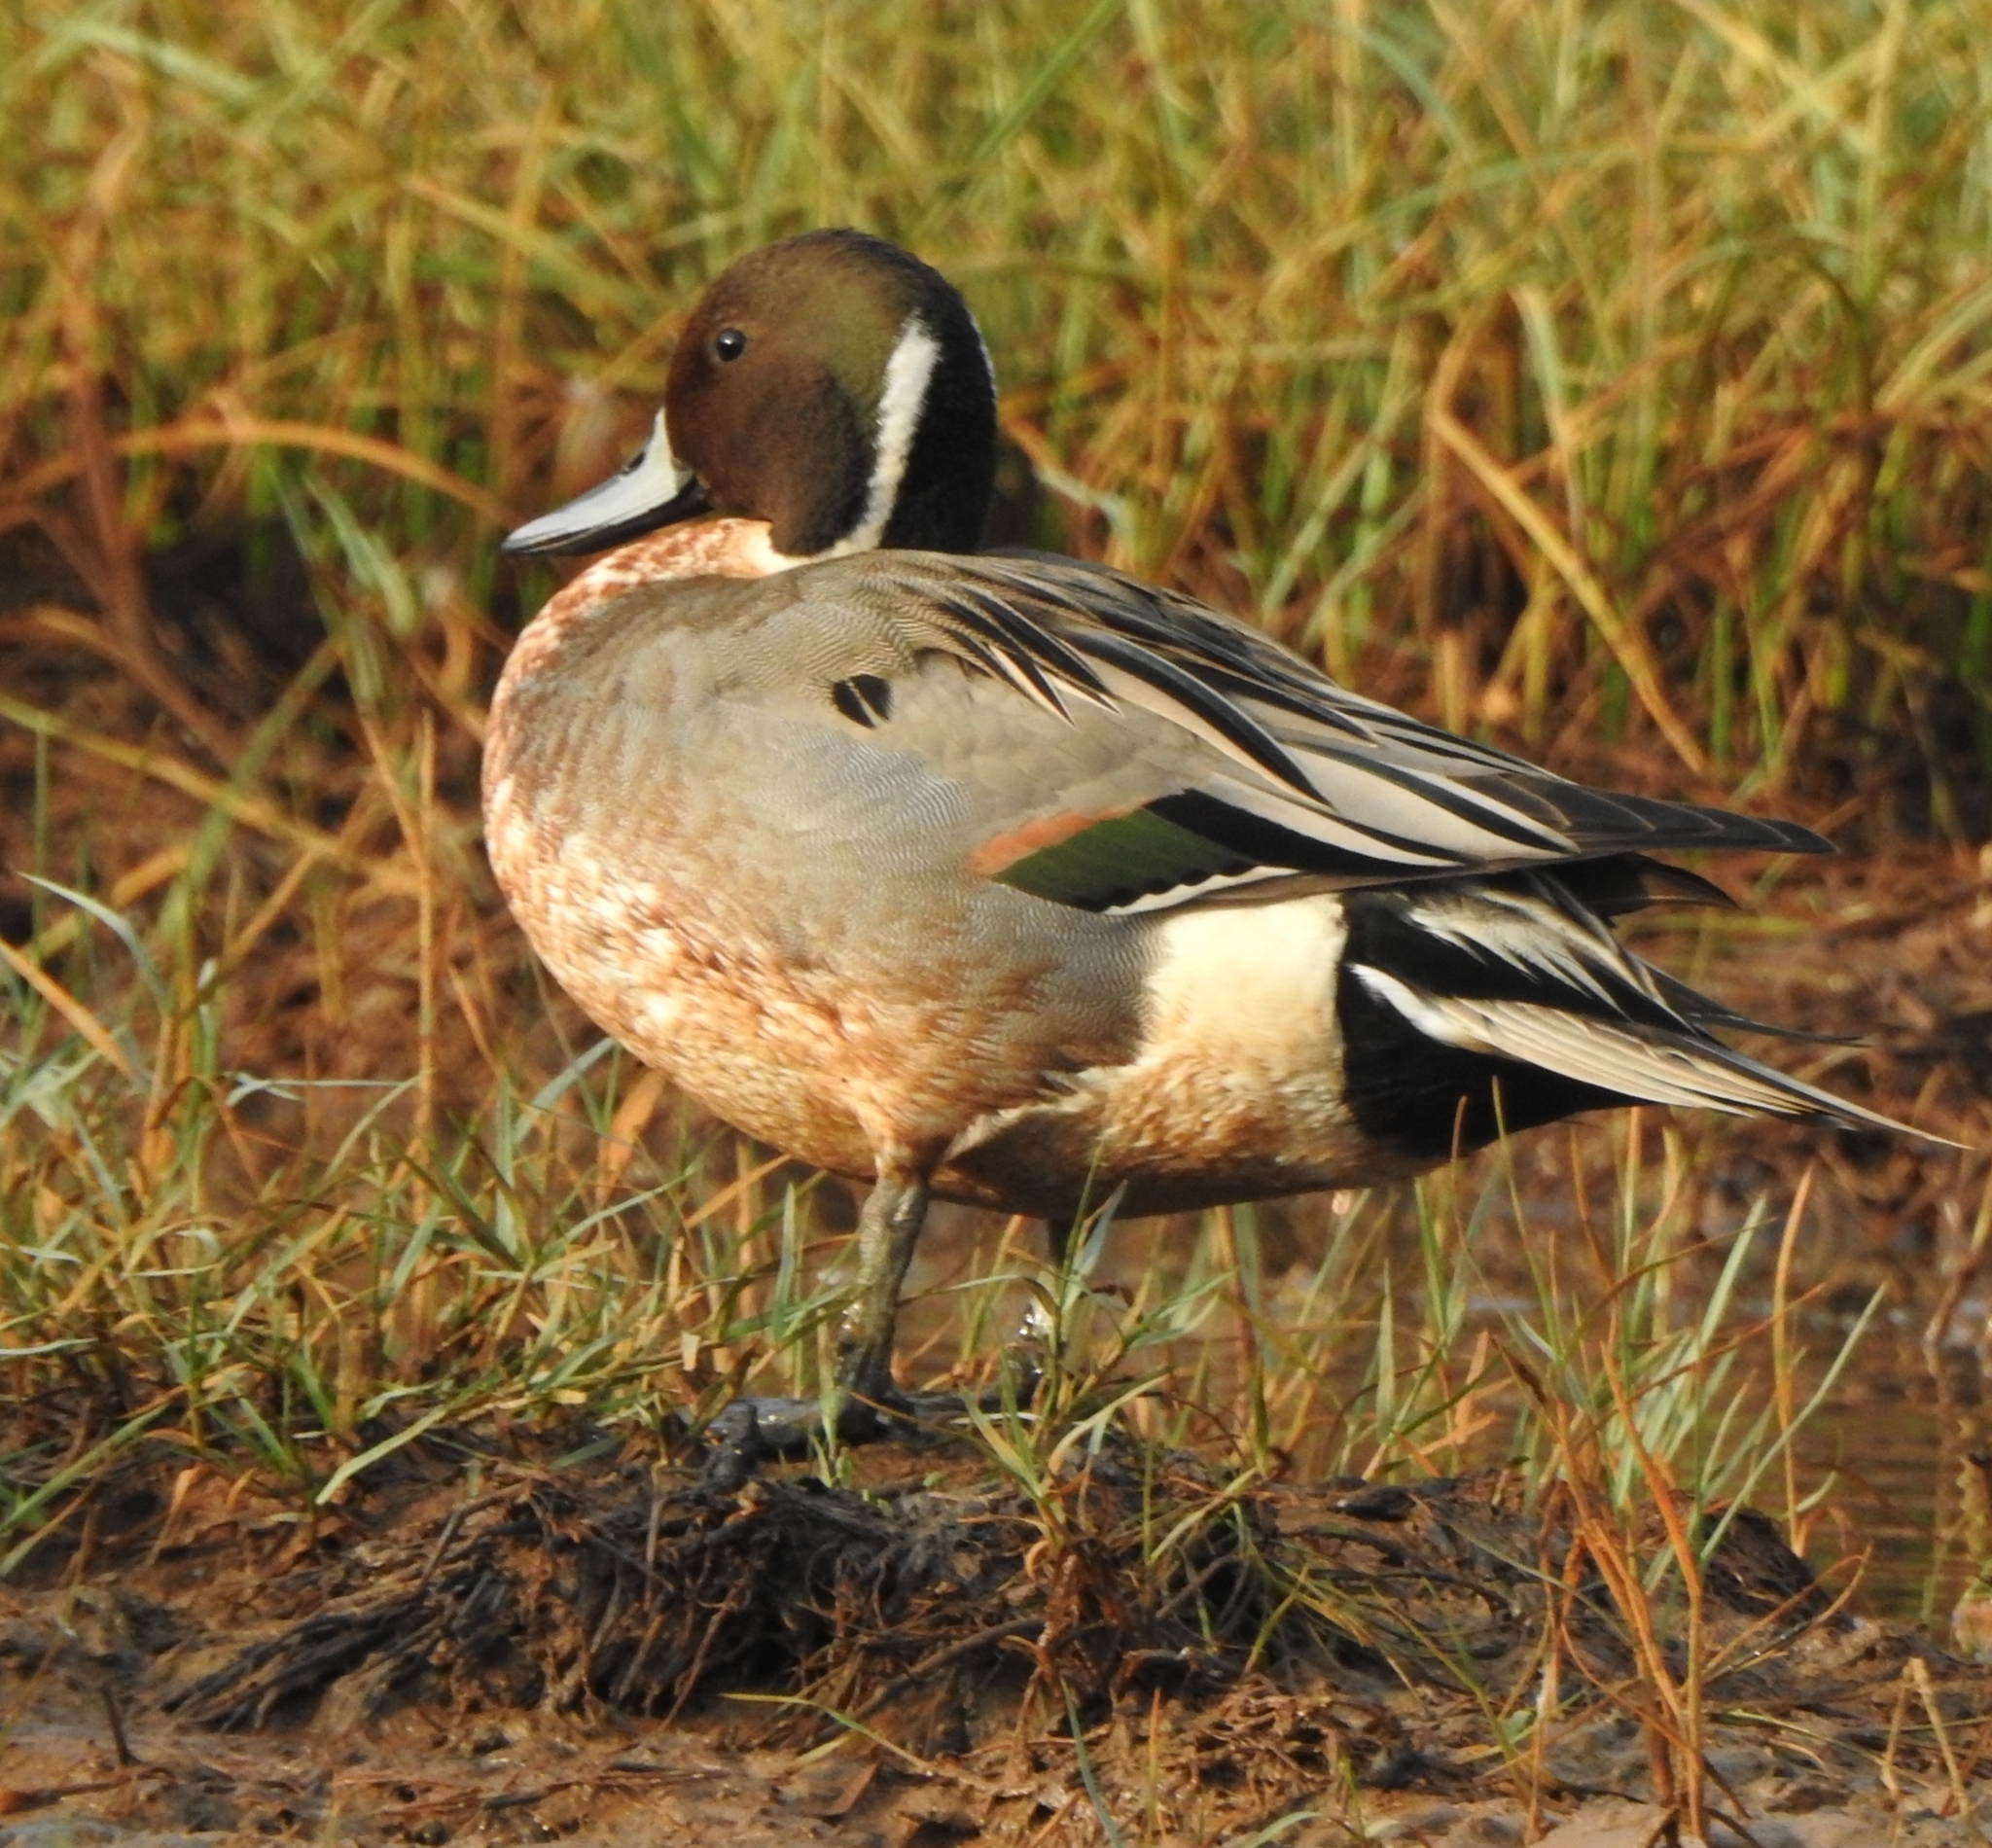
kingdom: Animalia
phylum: Chordata
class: Aves
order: Anseriformes
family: Anatidae
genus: Anas
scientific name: Anas acuta
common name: Northern pintail
